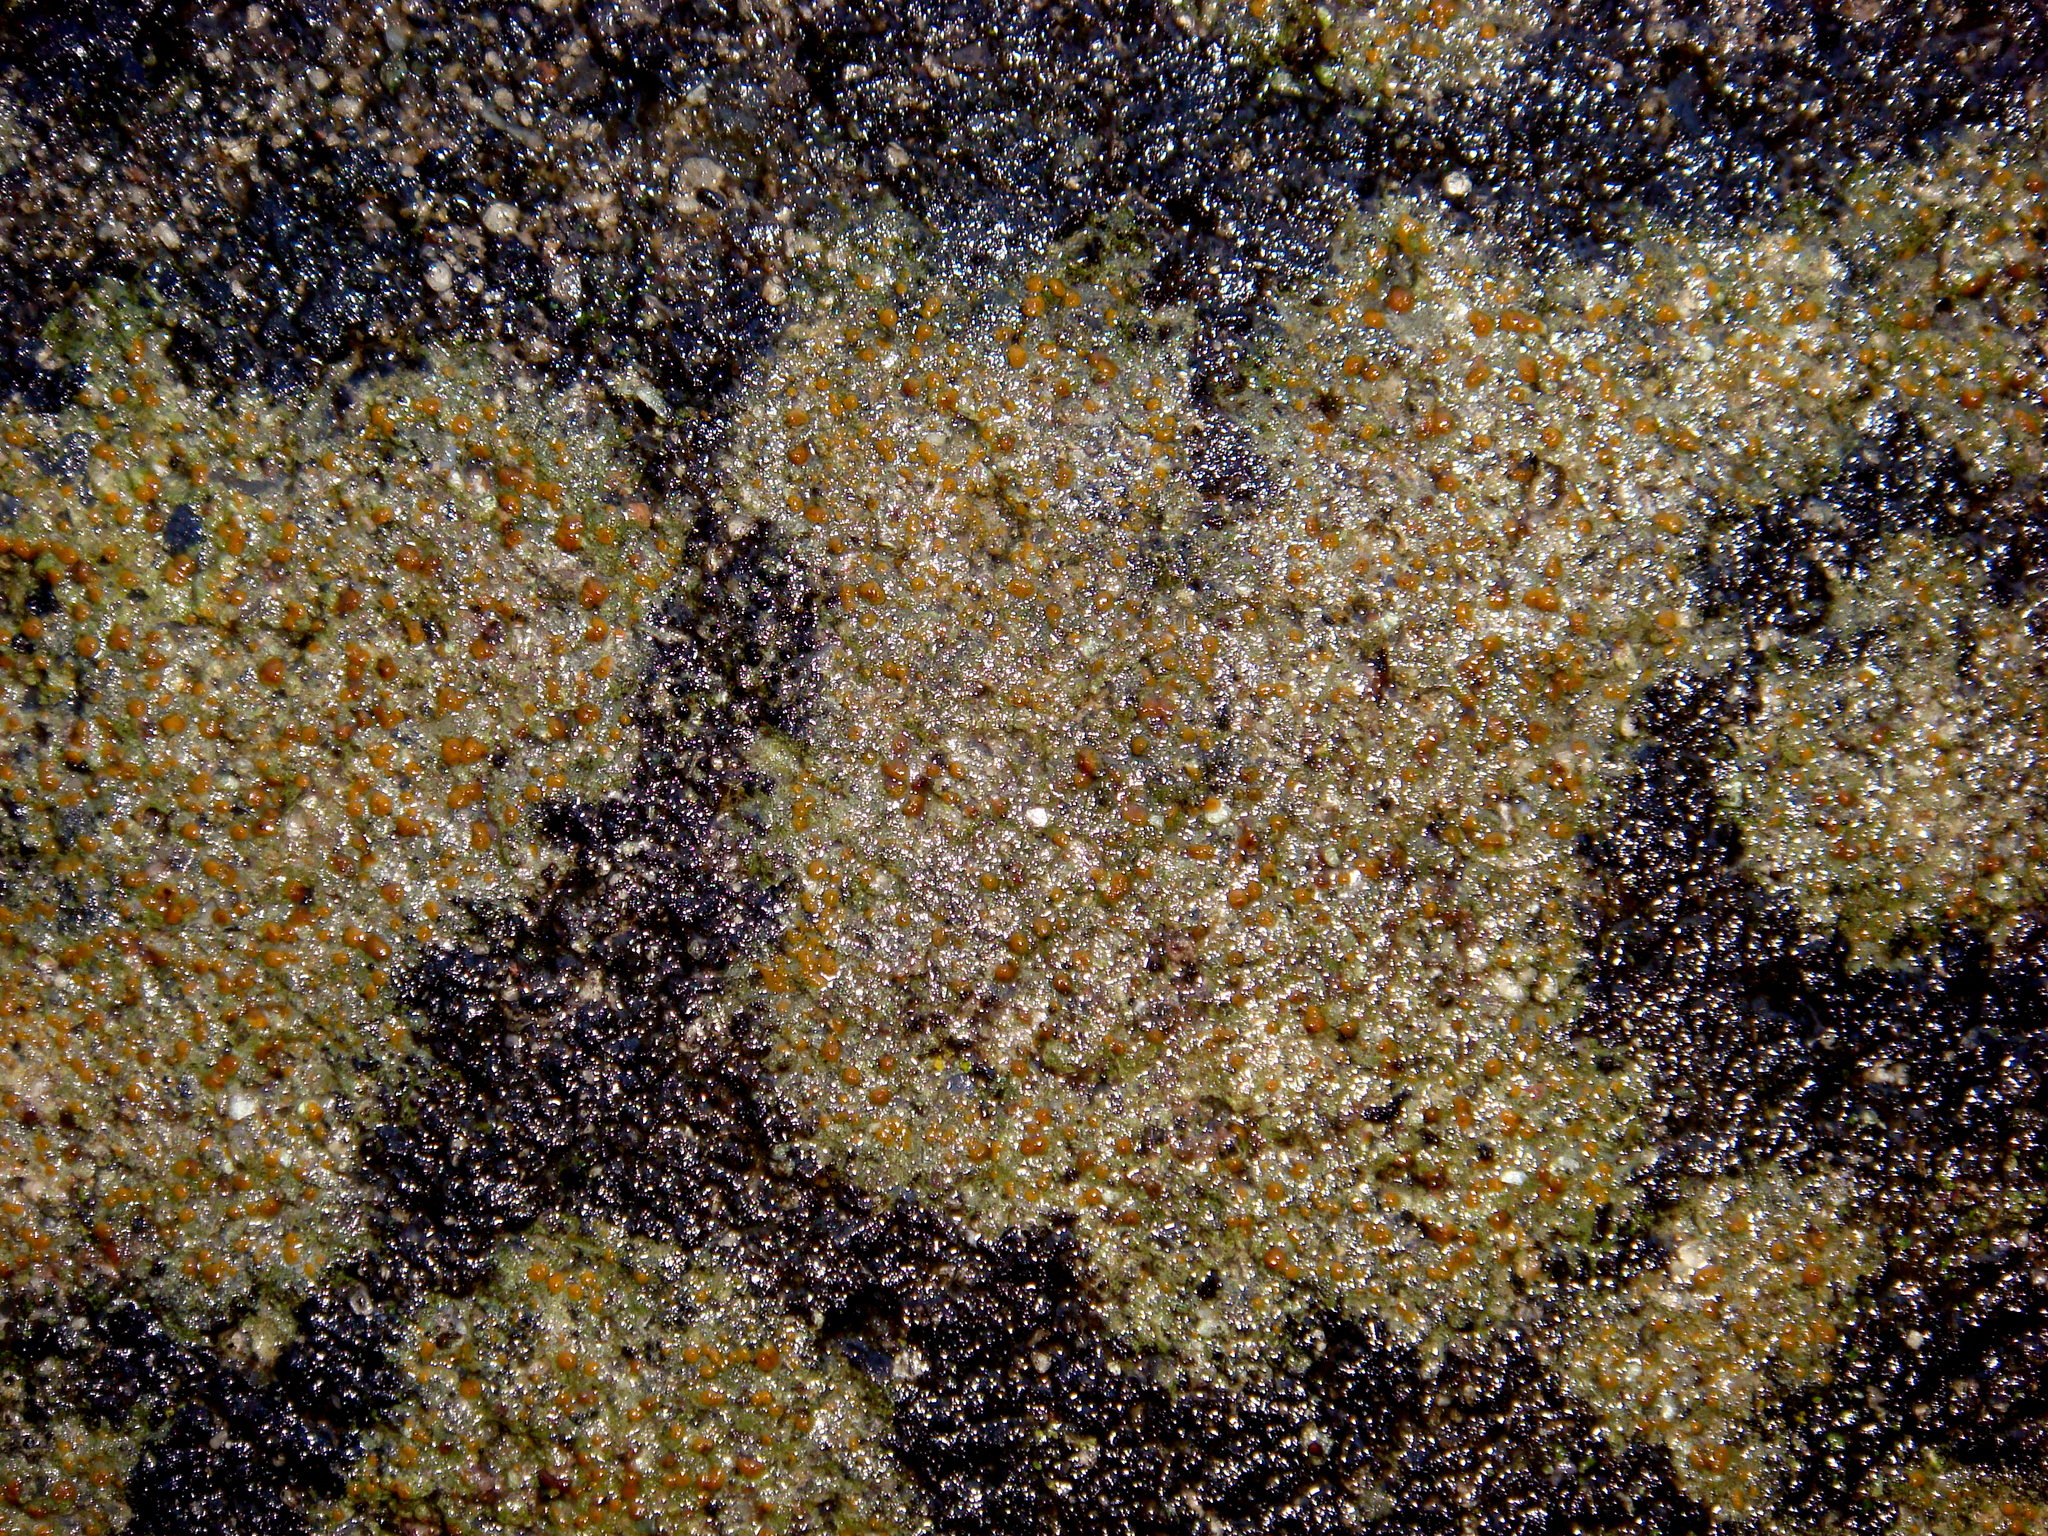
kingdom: Fungi
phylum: Ascomycota
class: Lecanoromycetes
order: Lecanorales
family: Psoraceae
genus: Protoblastenia
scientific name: Protoblastenia rupestris
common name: Chewing gum lichen
